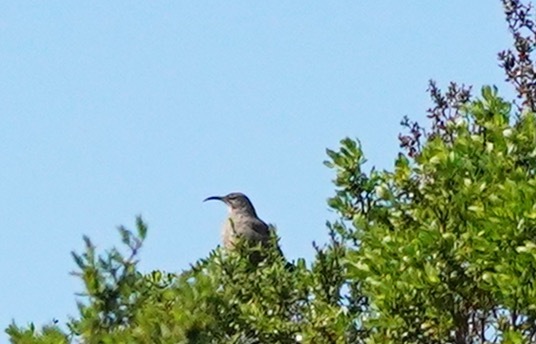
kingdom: Animalia
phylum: Chordata
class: Aves
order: Passeriformes
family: Mimidae
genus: Toxostoma
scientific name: Toxostoma redivivum
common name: California thrasher
